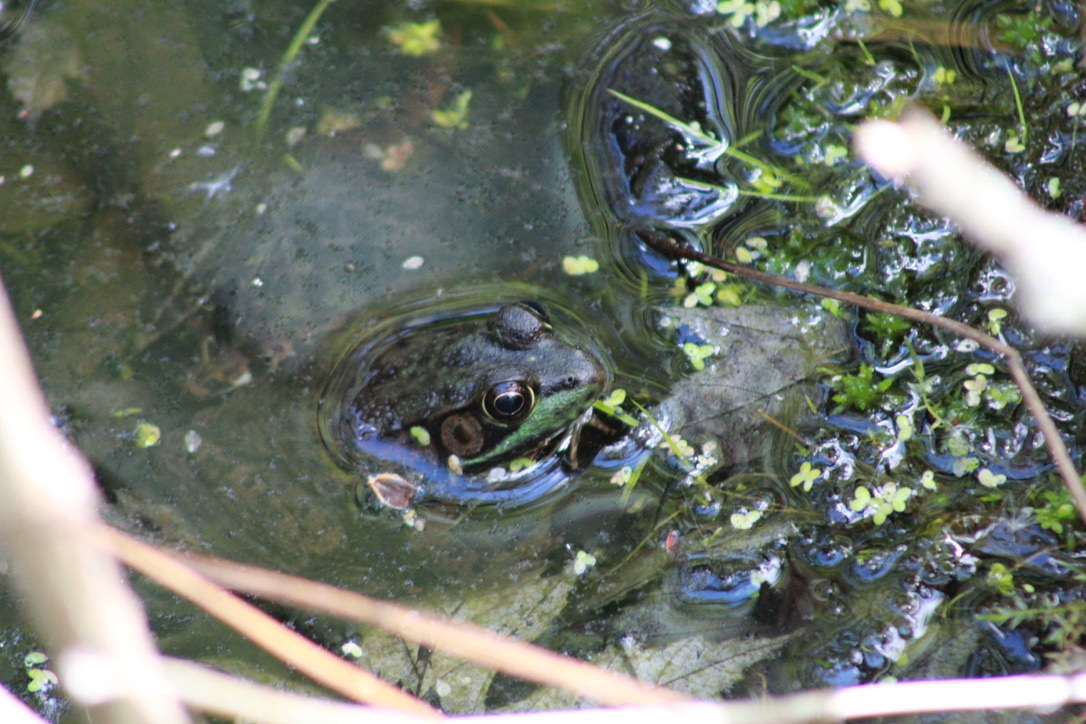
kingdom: Animalia
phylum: Chordata
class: Amphibia
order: Anura
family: Ranidae
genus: Lithobates
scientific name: Lithobates clamitans
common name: Green frog
